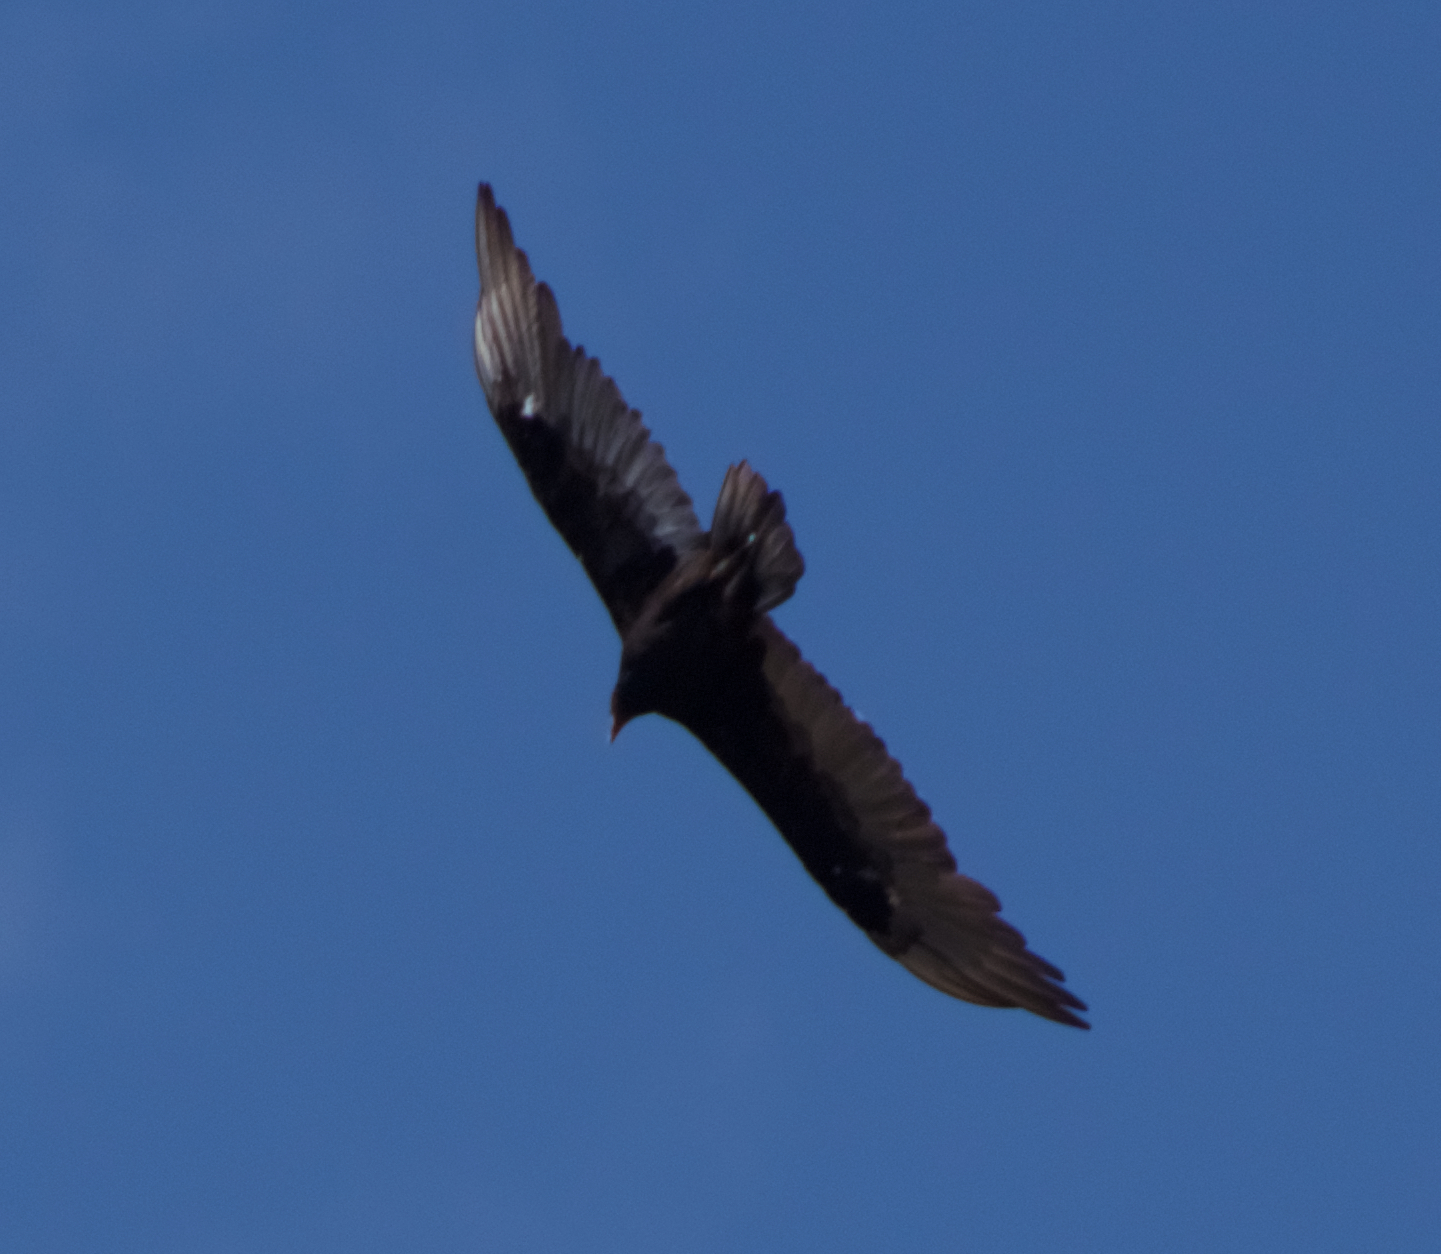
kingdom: Animalia
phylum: Chordata
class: Aves
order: Accipitriformes
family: Cathartidae
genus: Cathartes
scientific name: Cathartes aura
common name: Turkey vulture
